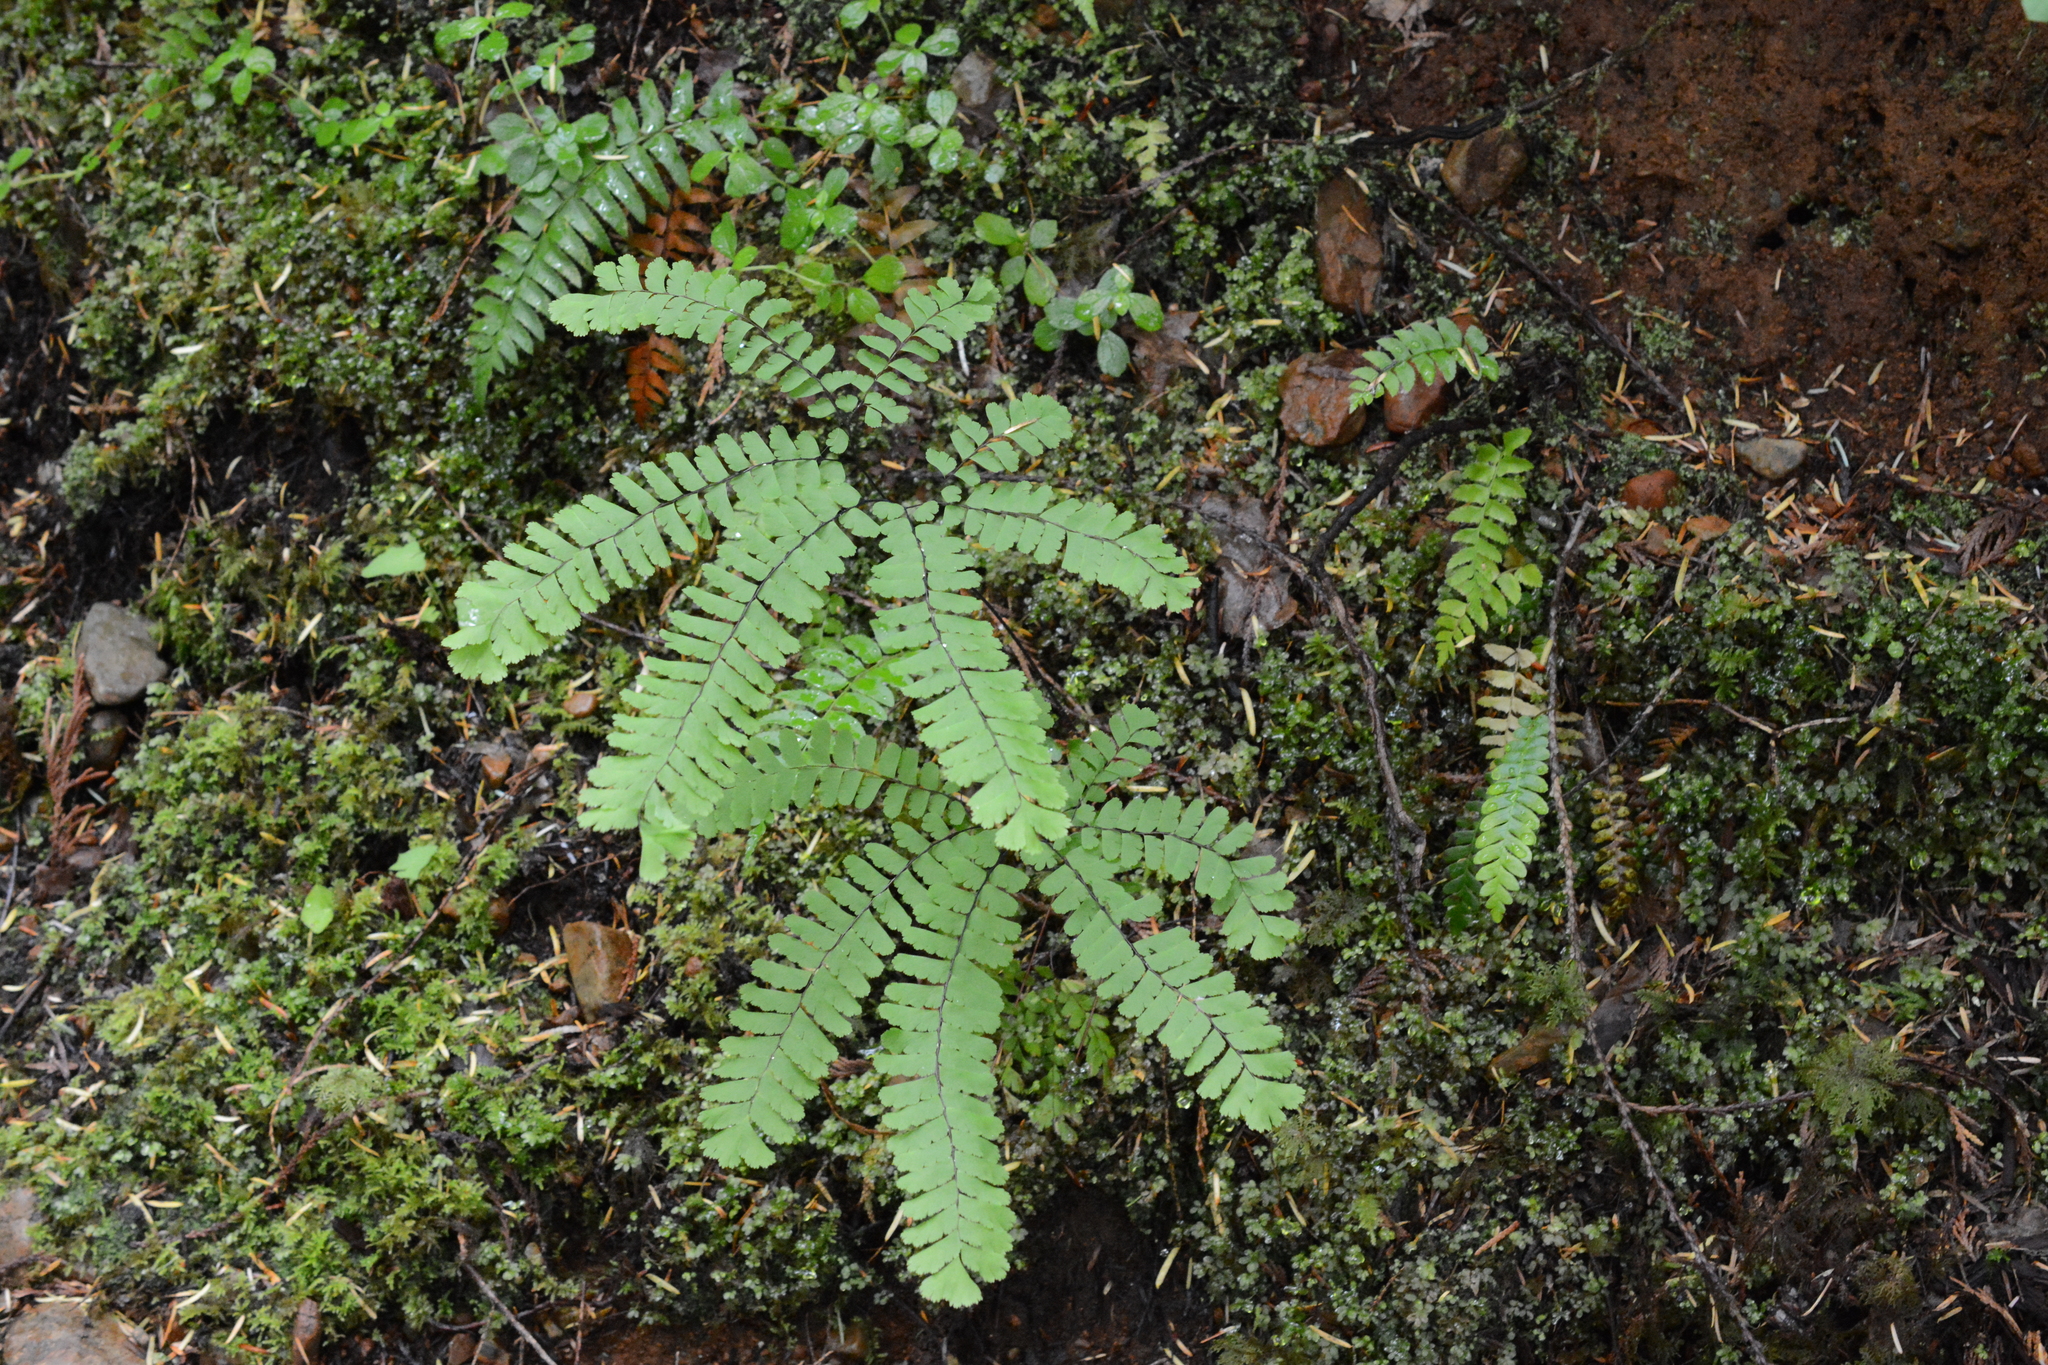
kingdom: Plantae
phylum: Tracheophyta
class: Polypodiopsida
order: Polypodiales
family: Pteridaceae
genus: Adiantum
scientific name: Adiantum aleuticum
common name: Aleutian maidenhair fern
